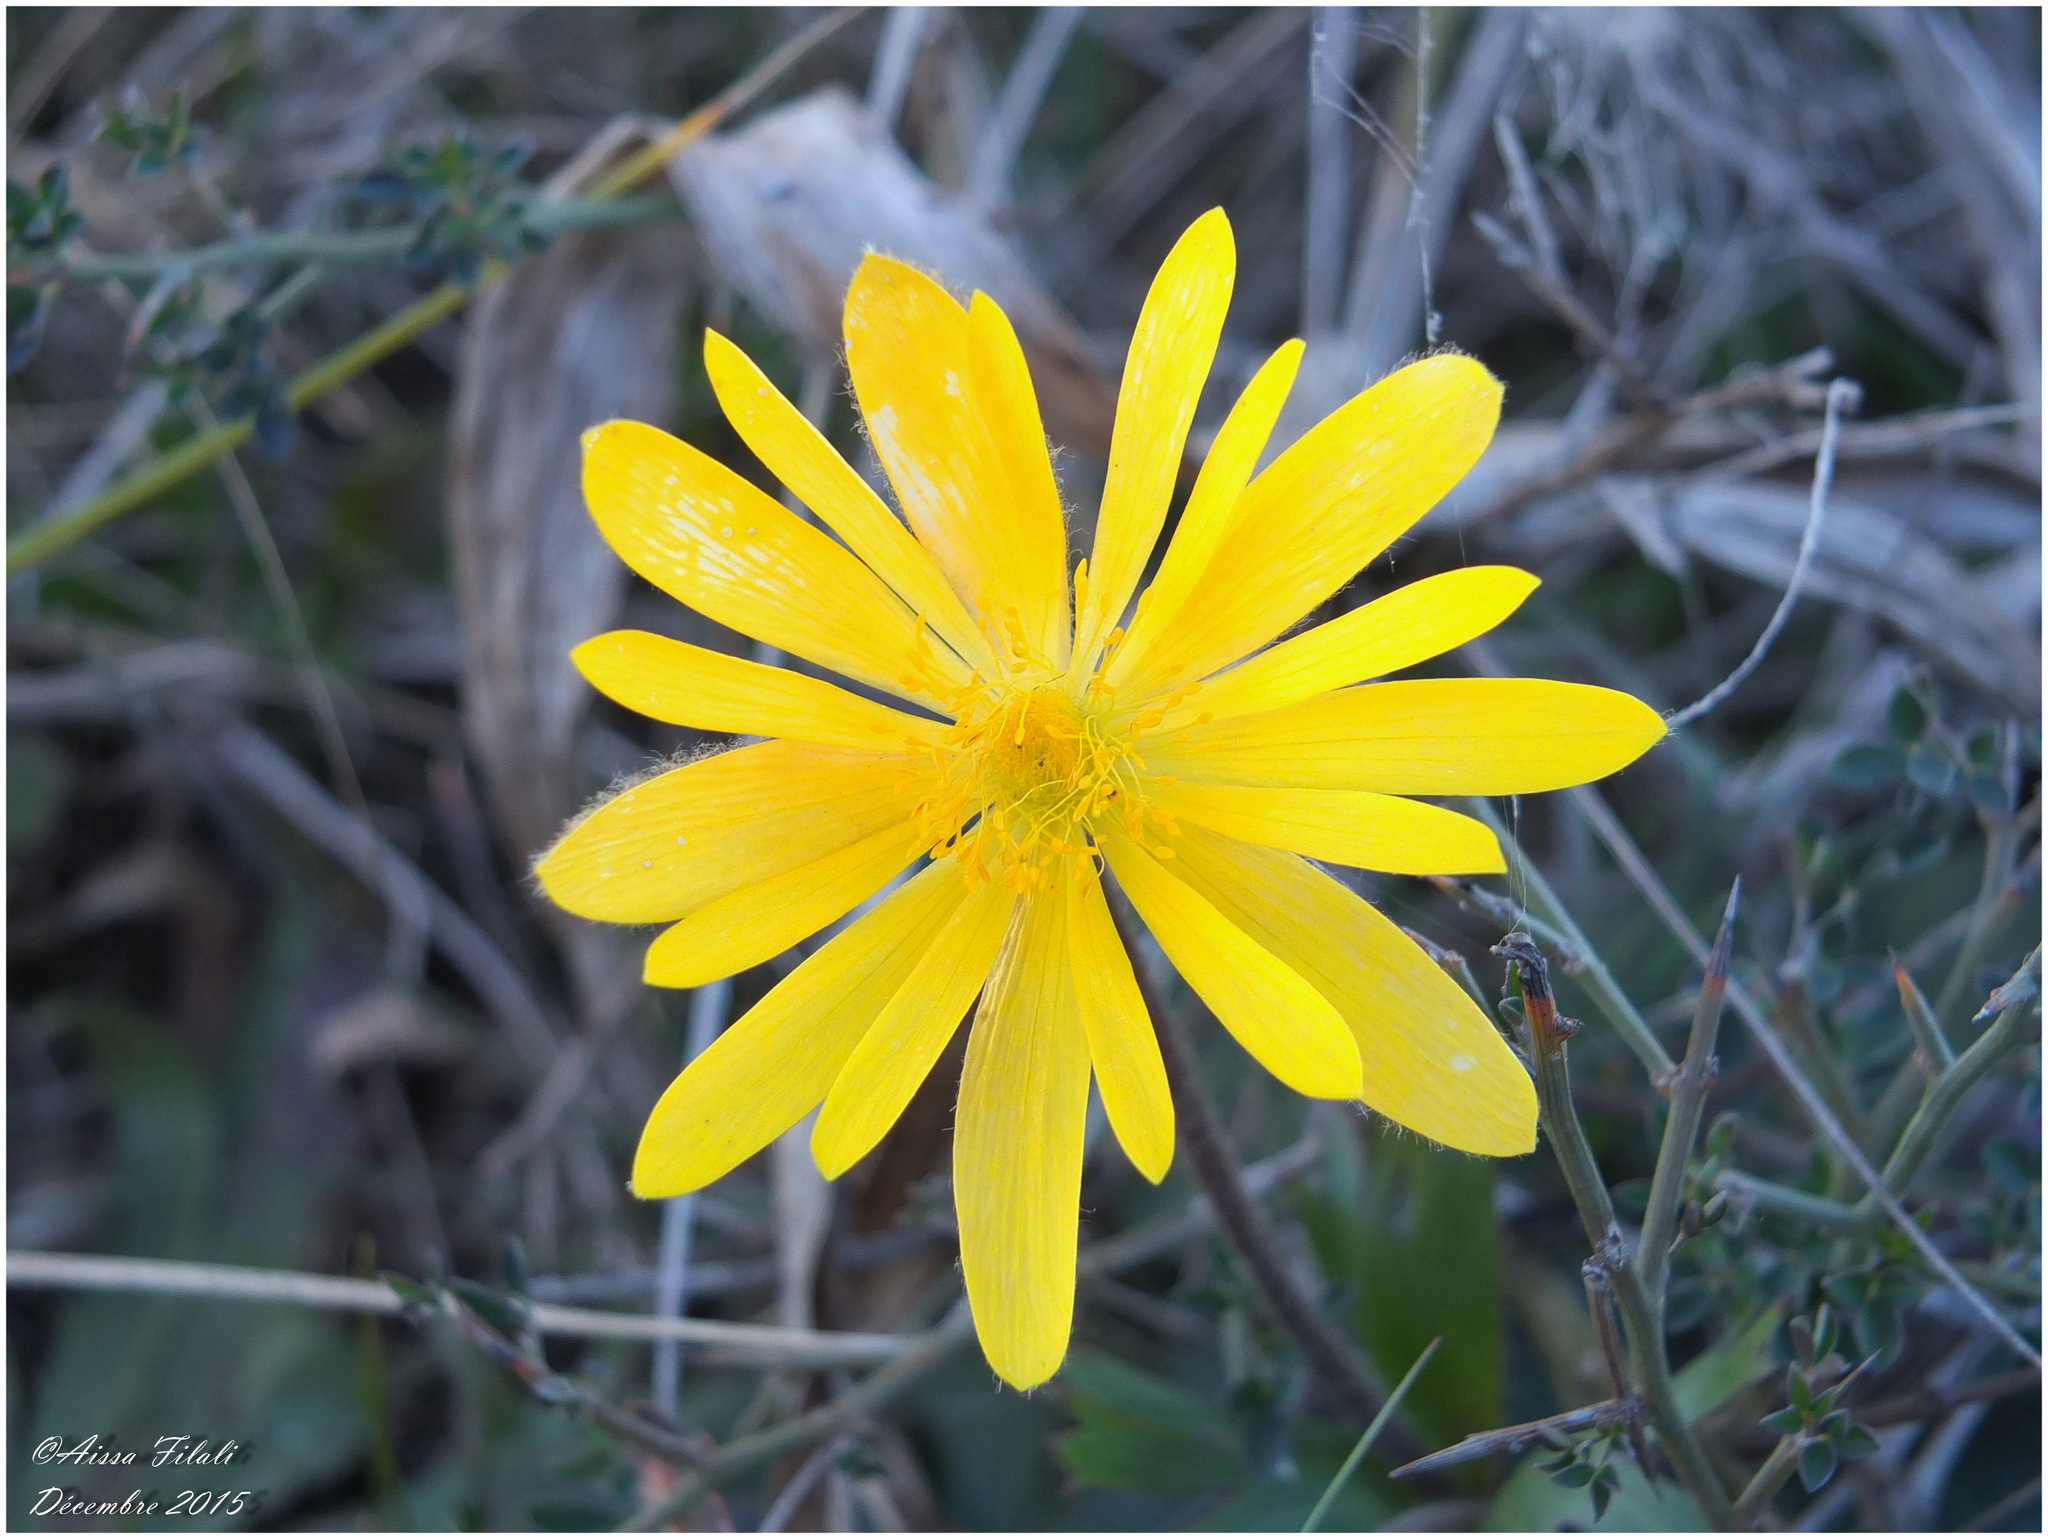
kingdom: Plantae
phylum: Tracheophyta
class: Magnoliopsida
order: Ranunculales
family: Ranunculaceae
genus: Anemone
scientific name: Anemone palmata
